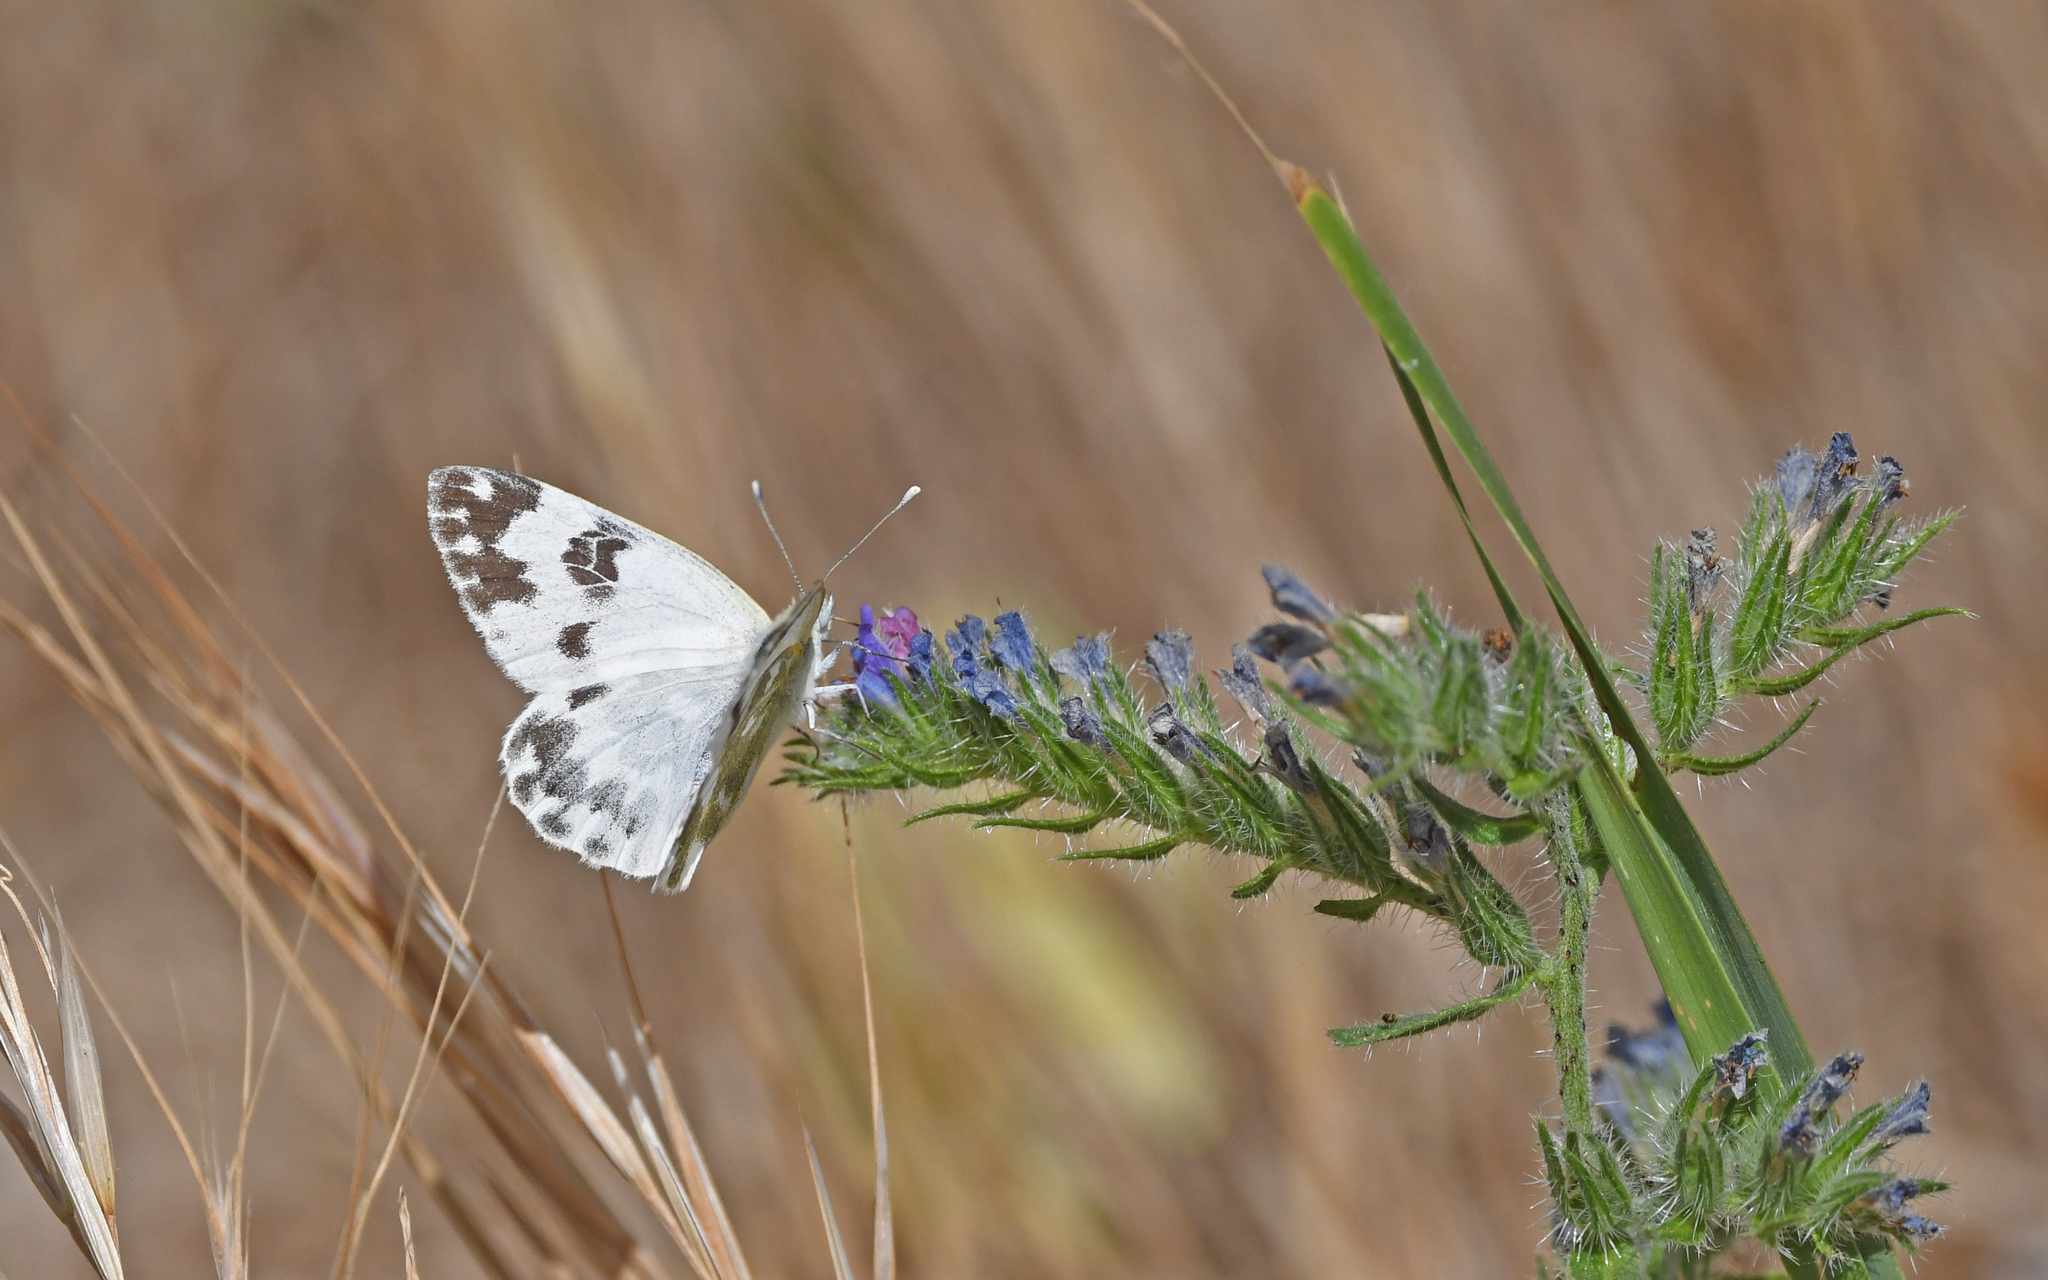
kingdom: Animalia
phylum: Arthropoda
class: Insecta
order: Lepidoptera
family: Pieridae
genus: Pontia
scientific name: Pontia edusa
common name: Eastern bath white
